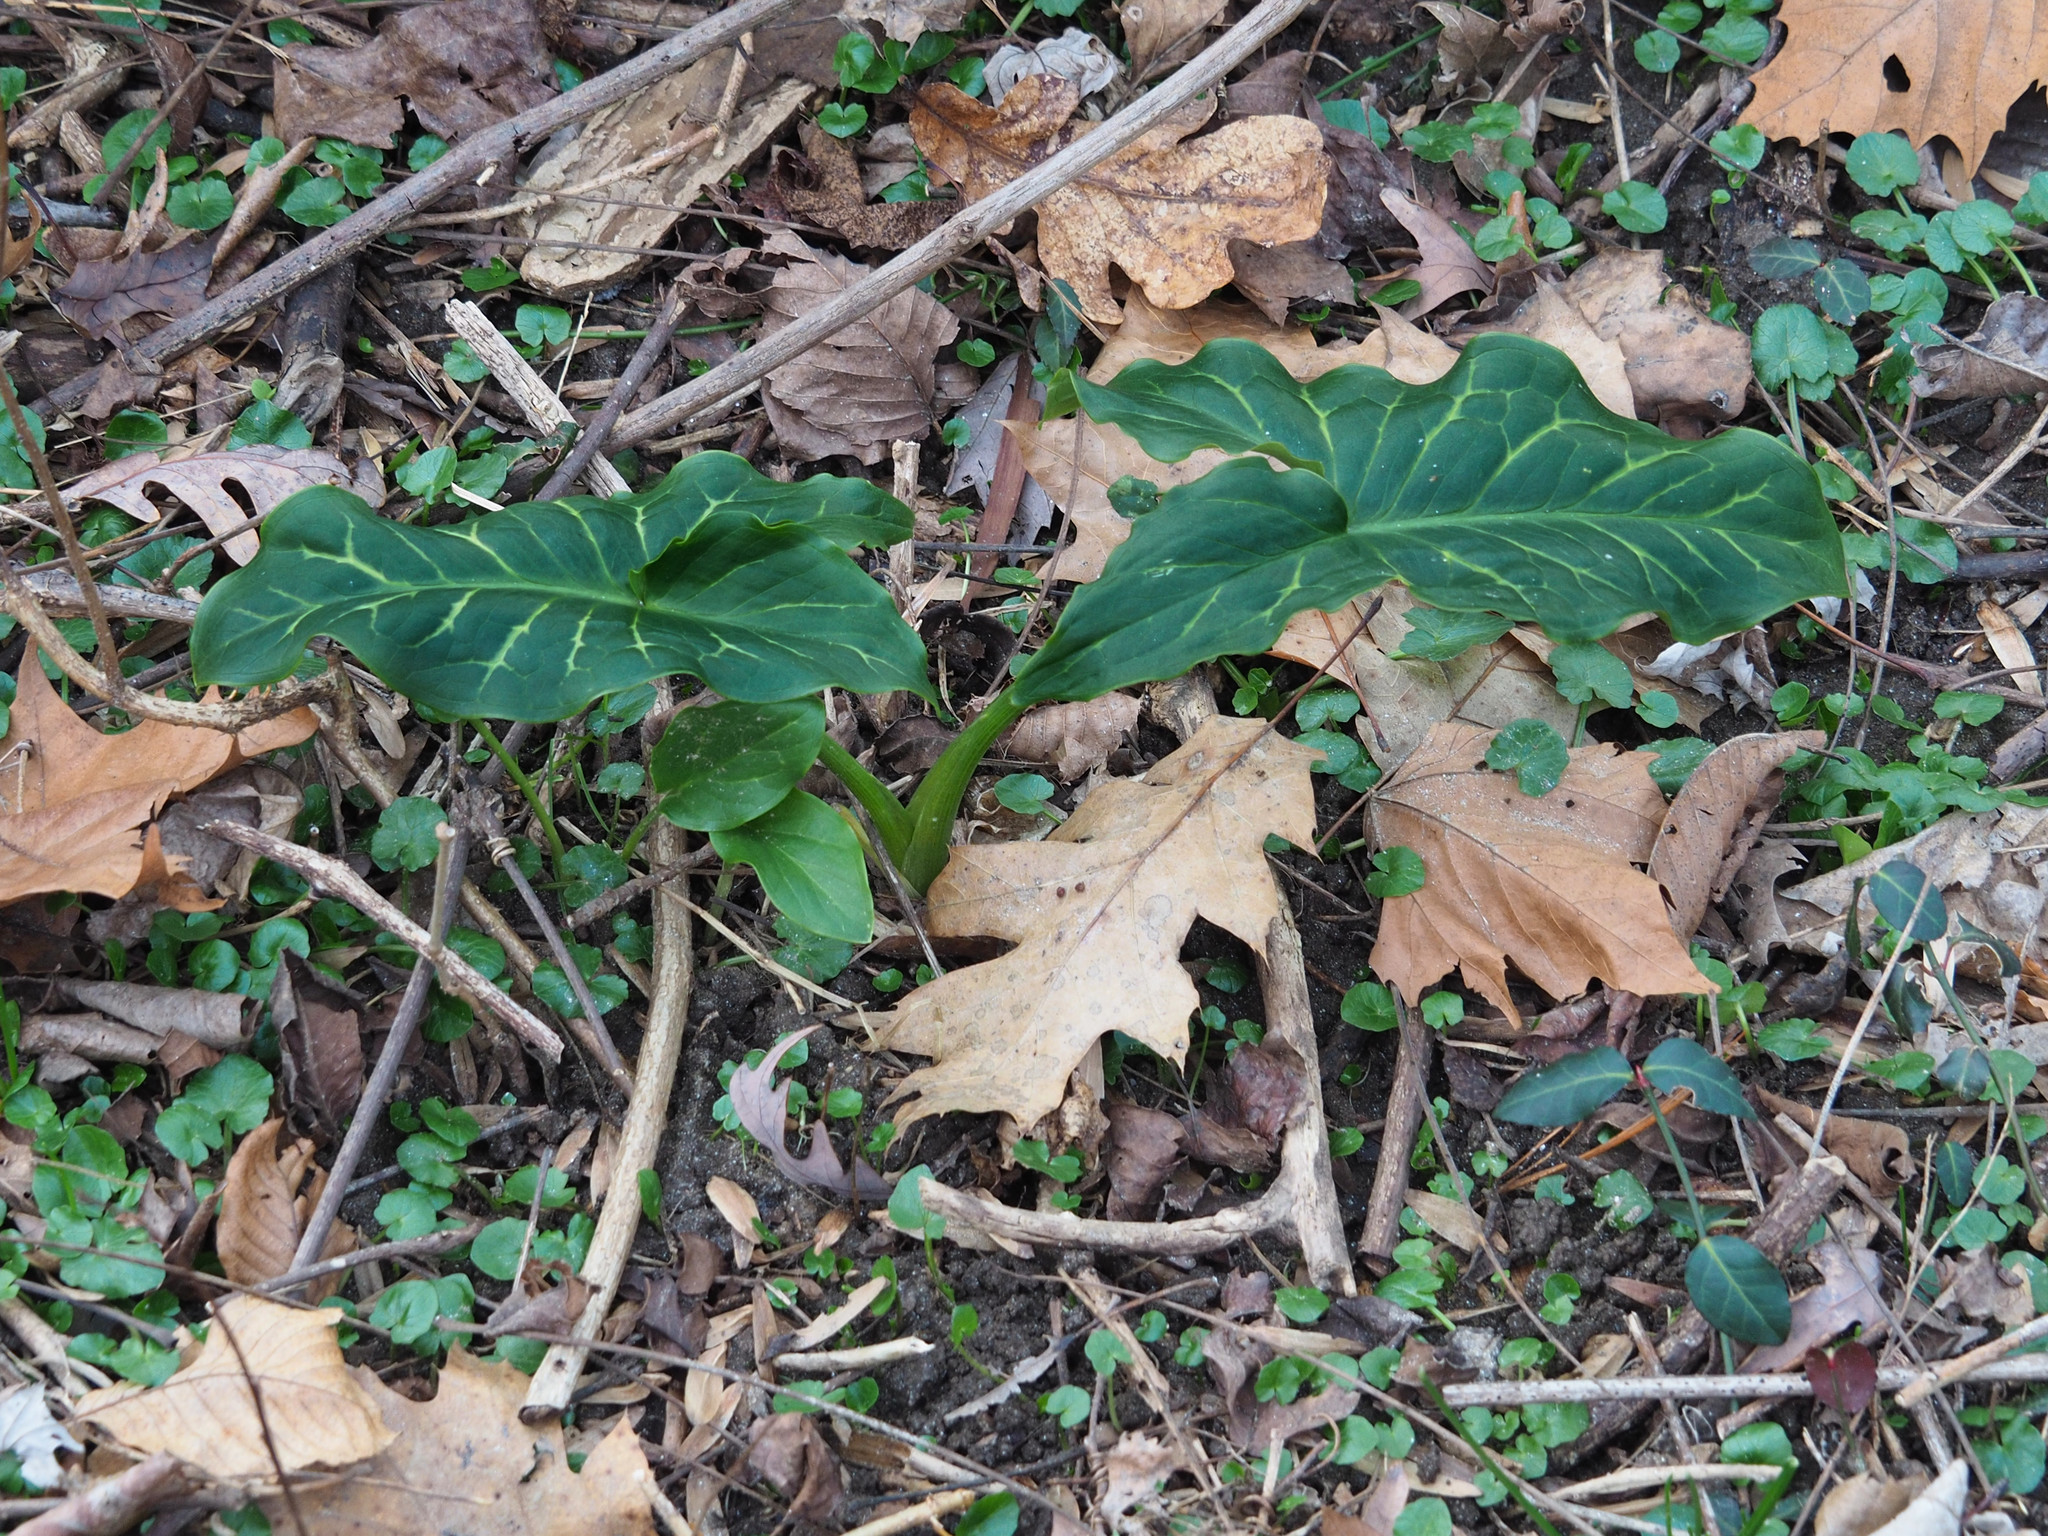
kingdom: Plantae
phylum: Tracheophyta
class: Liliopsida
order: Alismatales
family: Araceae
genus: Arum
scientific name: Arum italicum
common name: Italian lords-and-ladies
